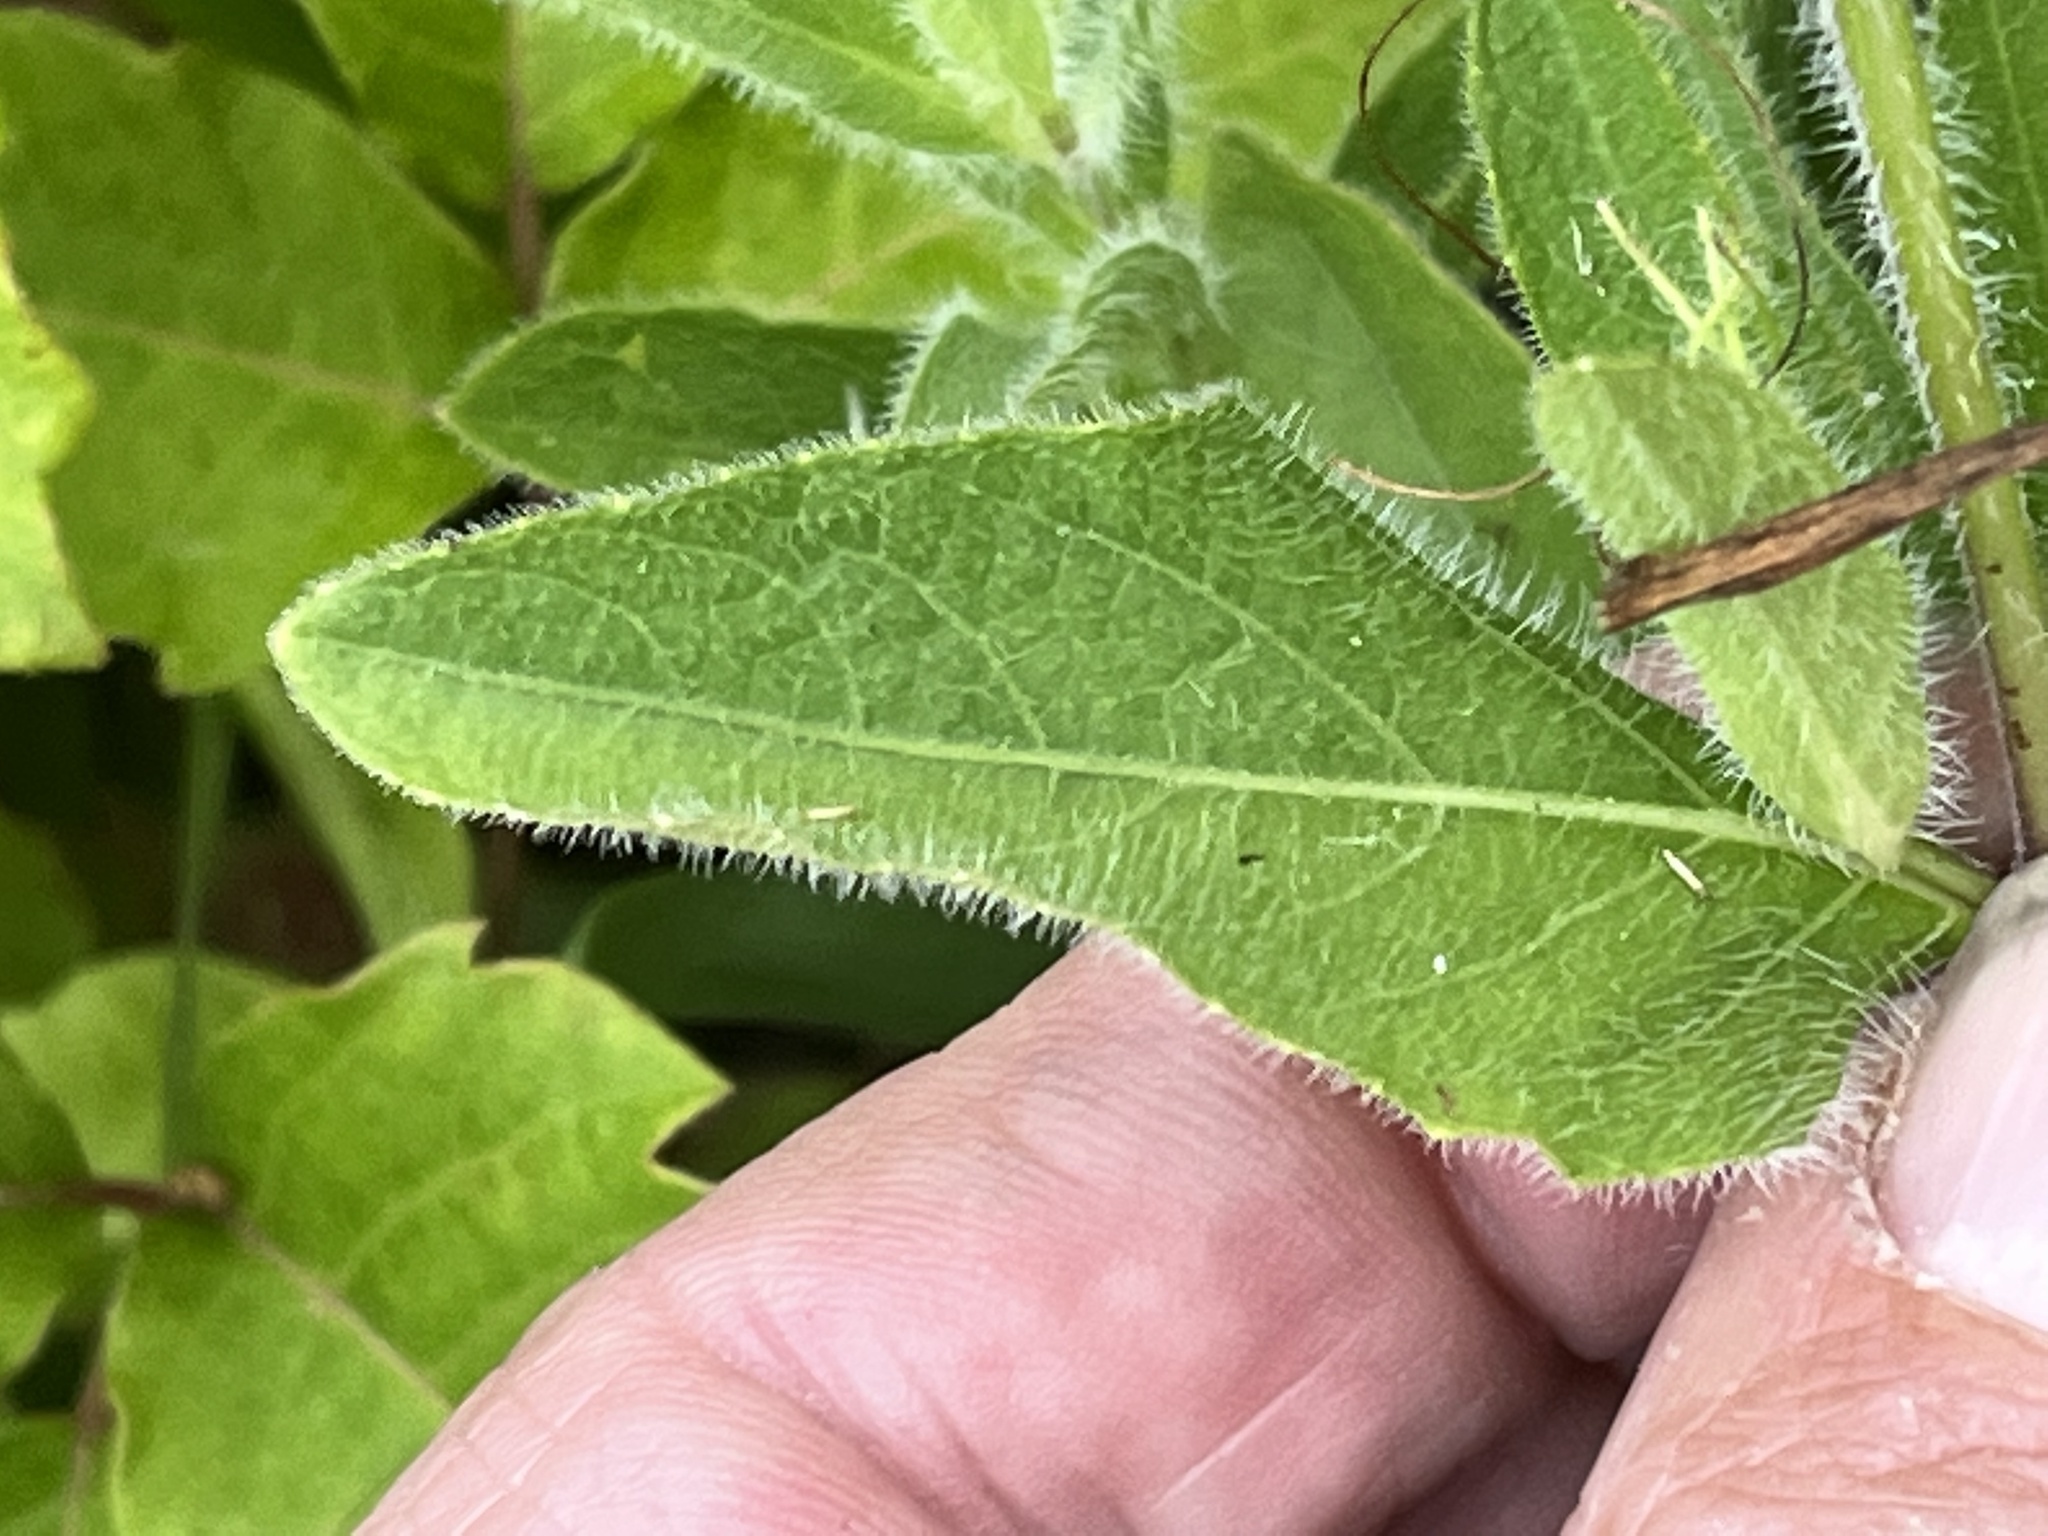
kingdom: Plantae
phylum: Tracheophyta
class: Magnoliopsida
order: Lamiales
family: Acanthaceae
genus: Ruellia
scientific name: Ruellia humilis
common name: Fringe-leaf ruellia
